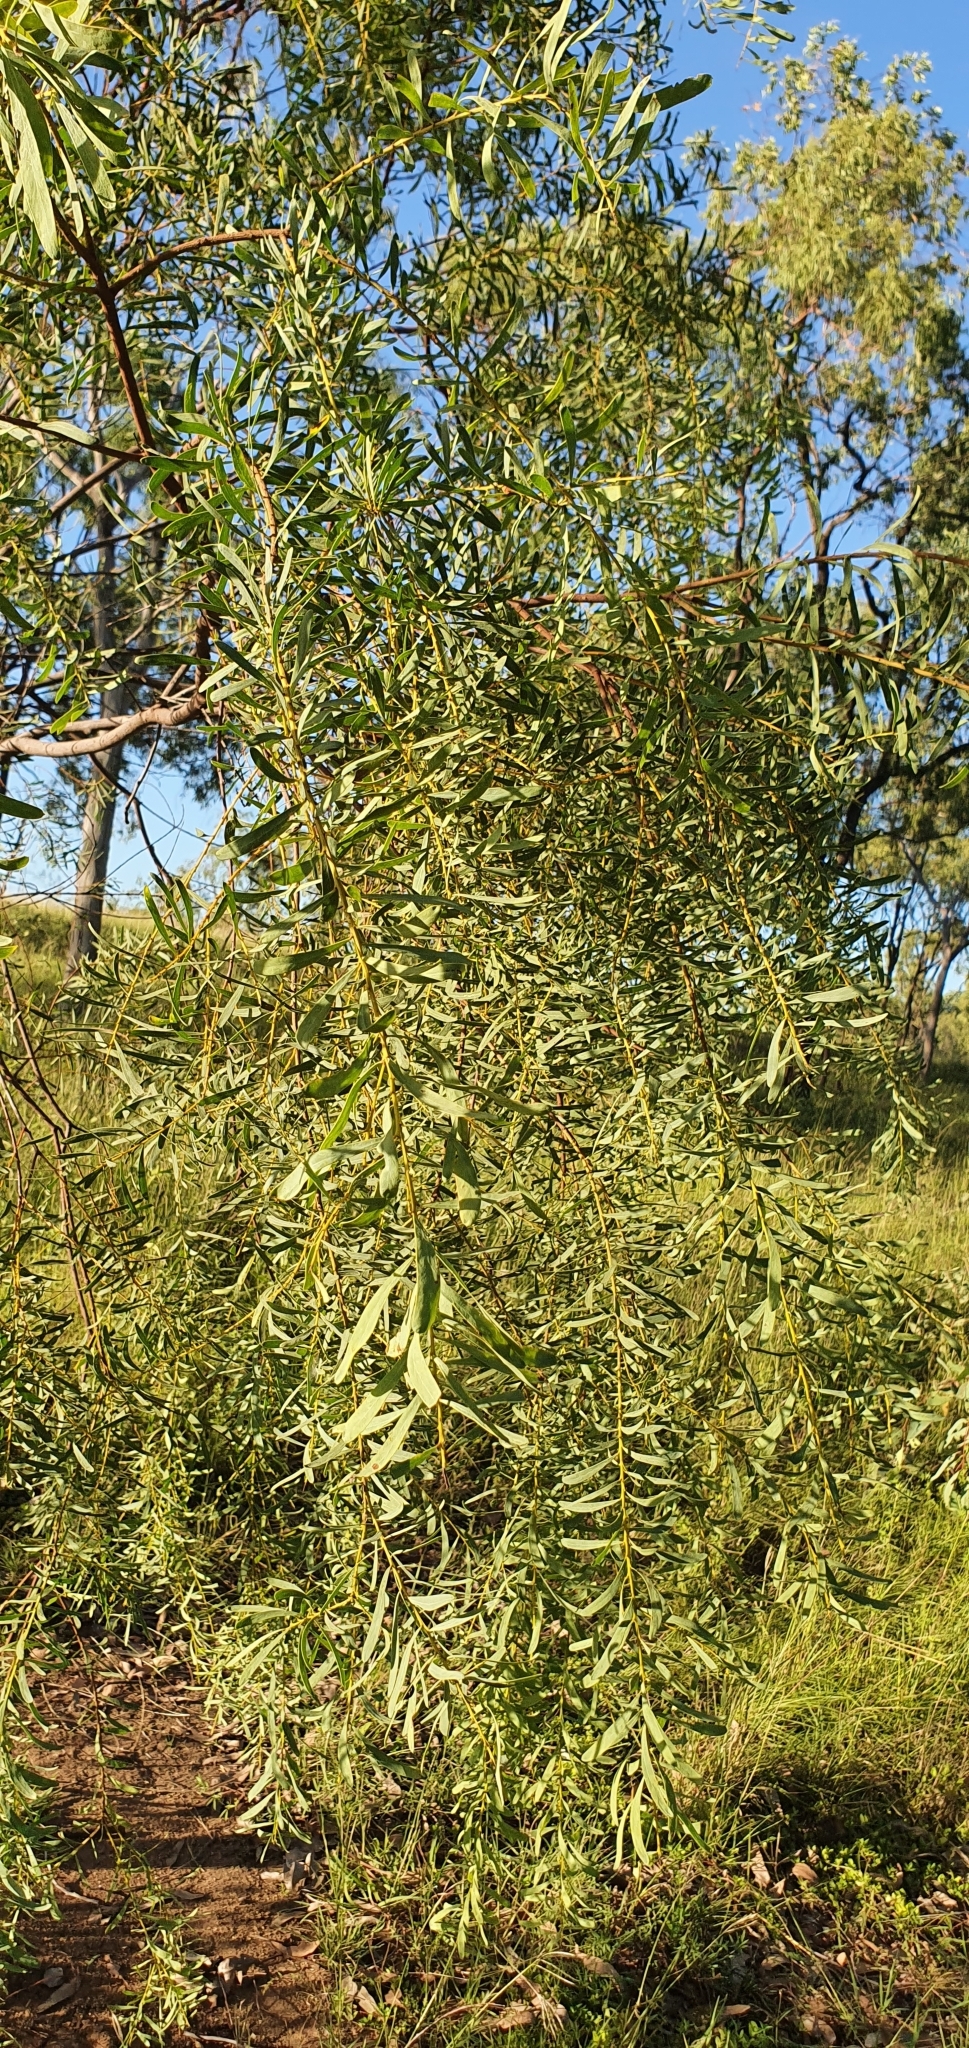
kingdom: Plantae
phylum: Tracheophyta
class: Magnoliopsida
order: Fabales
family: Fabaceae
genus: Acacia
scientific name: Acacia decora
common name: Showy wattle
